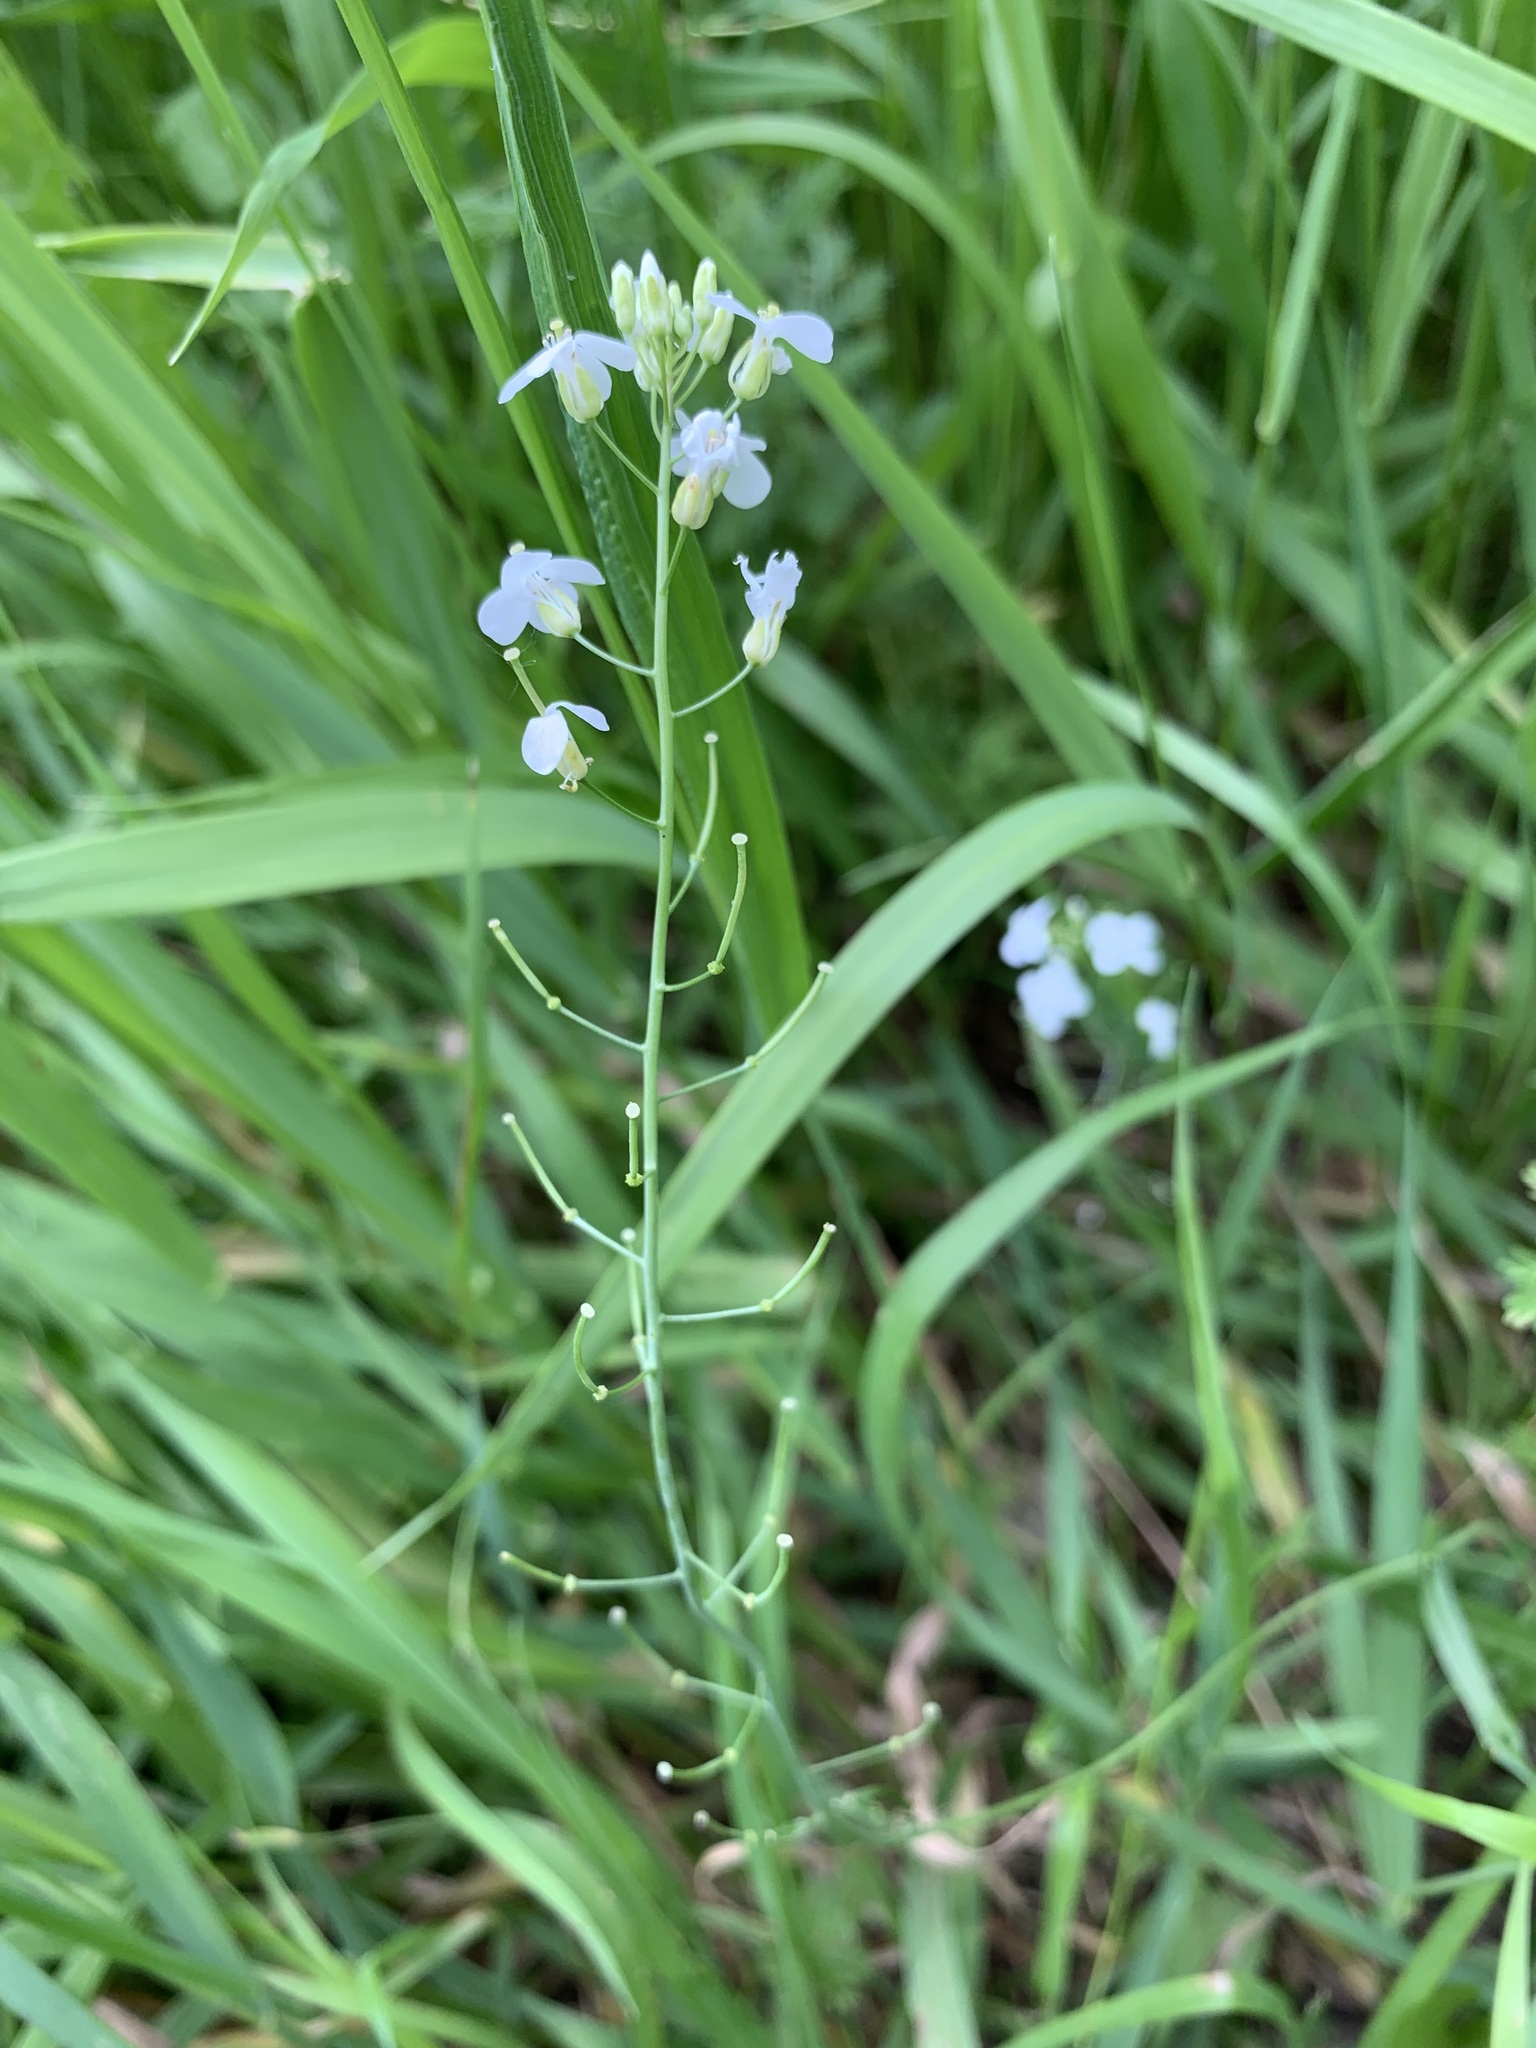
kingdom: Plantae
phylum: Tracheophyta
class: Magnoliopsida
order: Brassicales
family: Brassicaceae
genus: Pseudoarabidopsis
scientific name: Pseudoarabidopsis toxophylla
